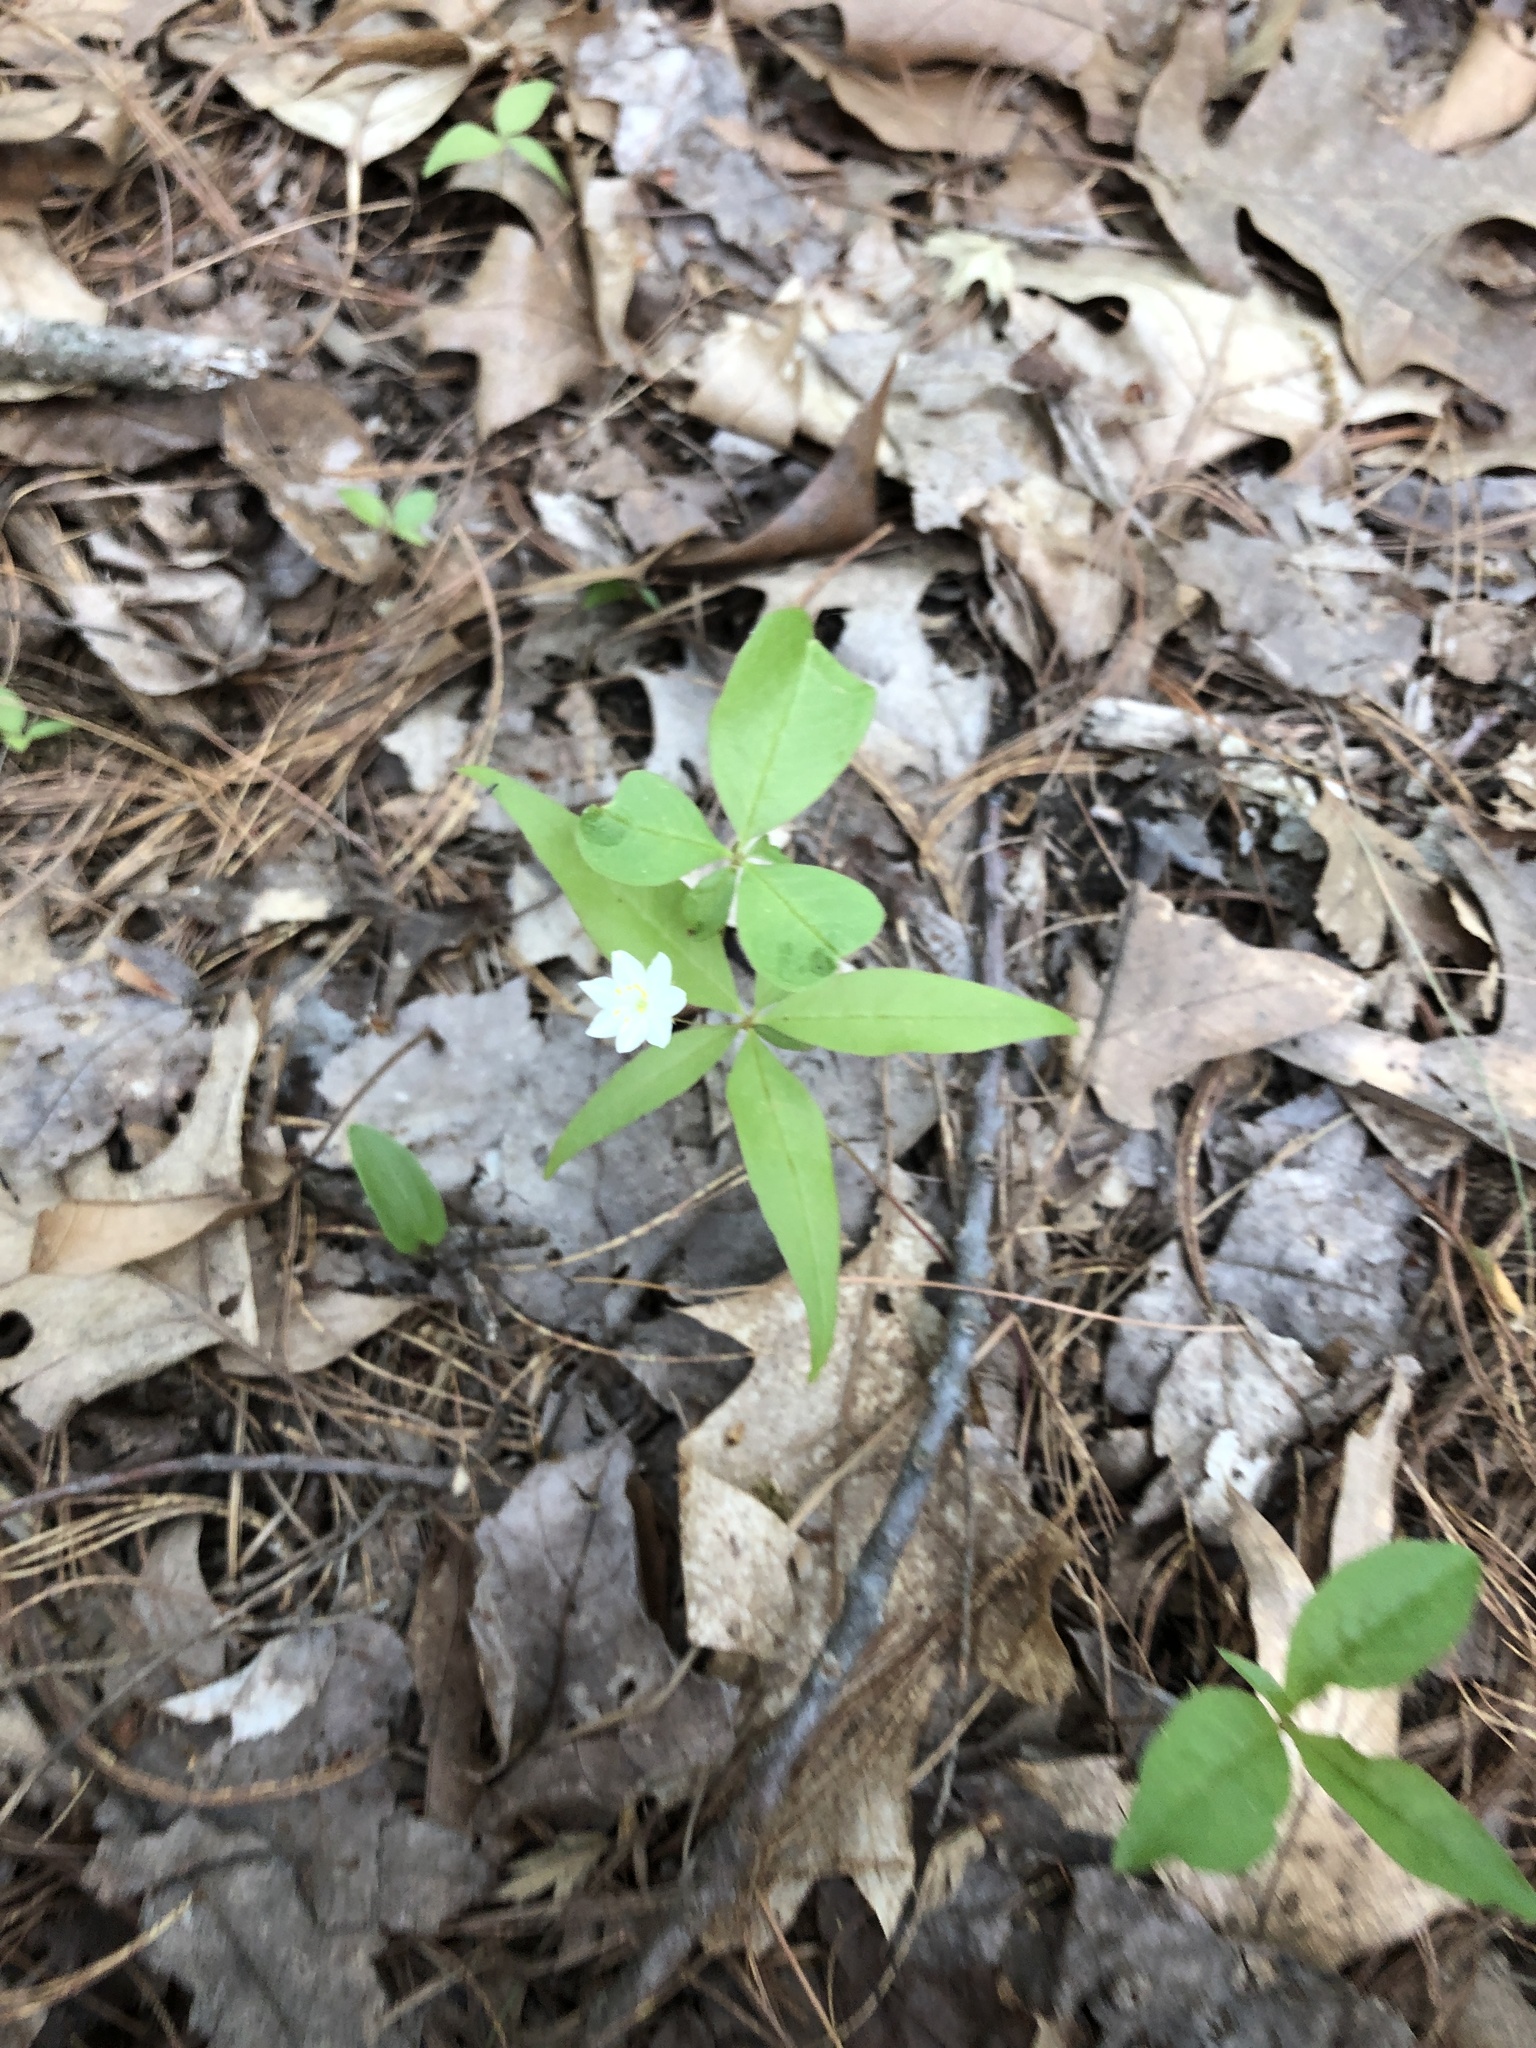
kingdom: Plantae
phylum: Tracheophyta
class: Magnoliopsida
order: Ericales
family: Primulaceae
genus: Lysimachia
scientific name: Lysimachia borealis
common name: American starflower
